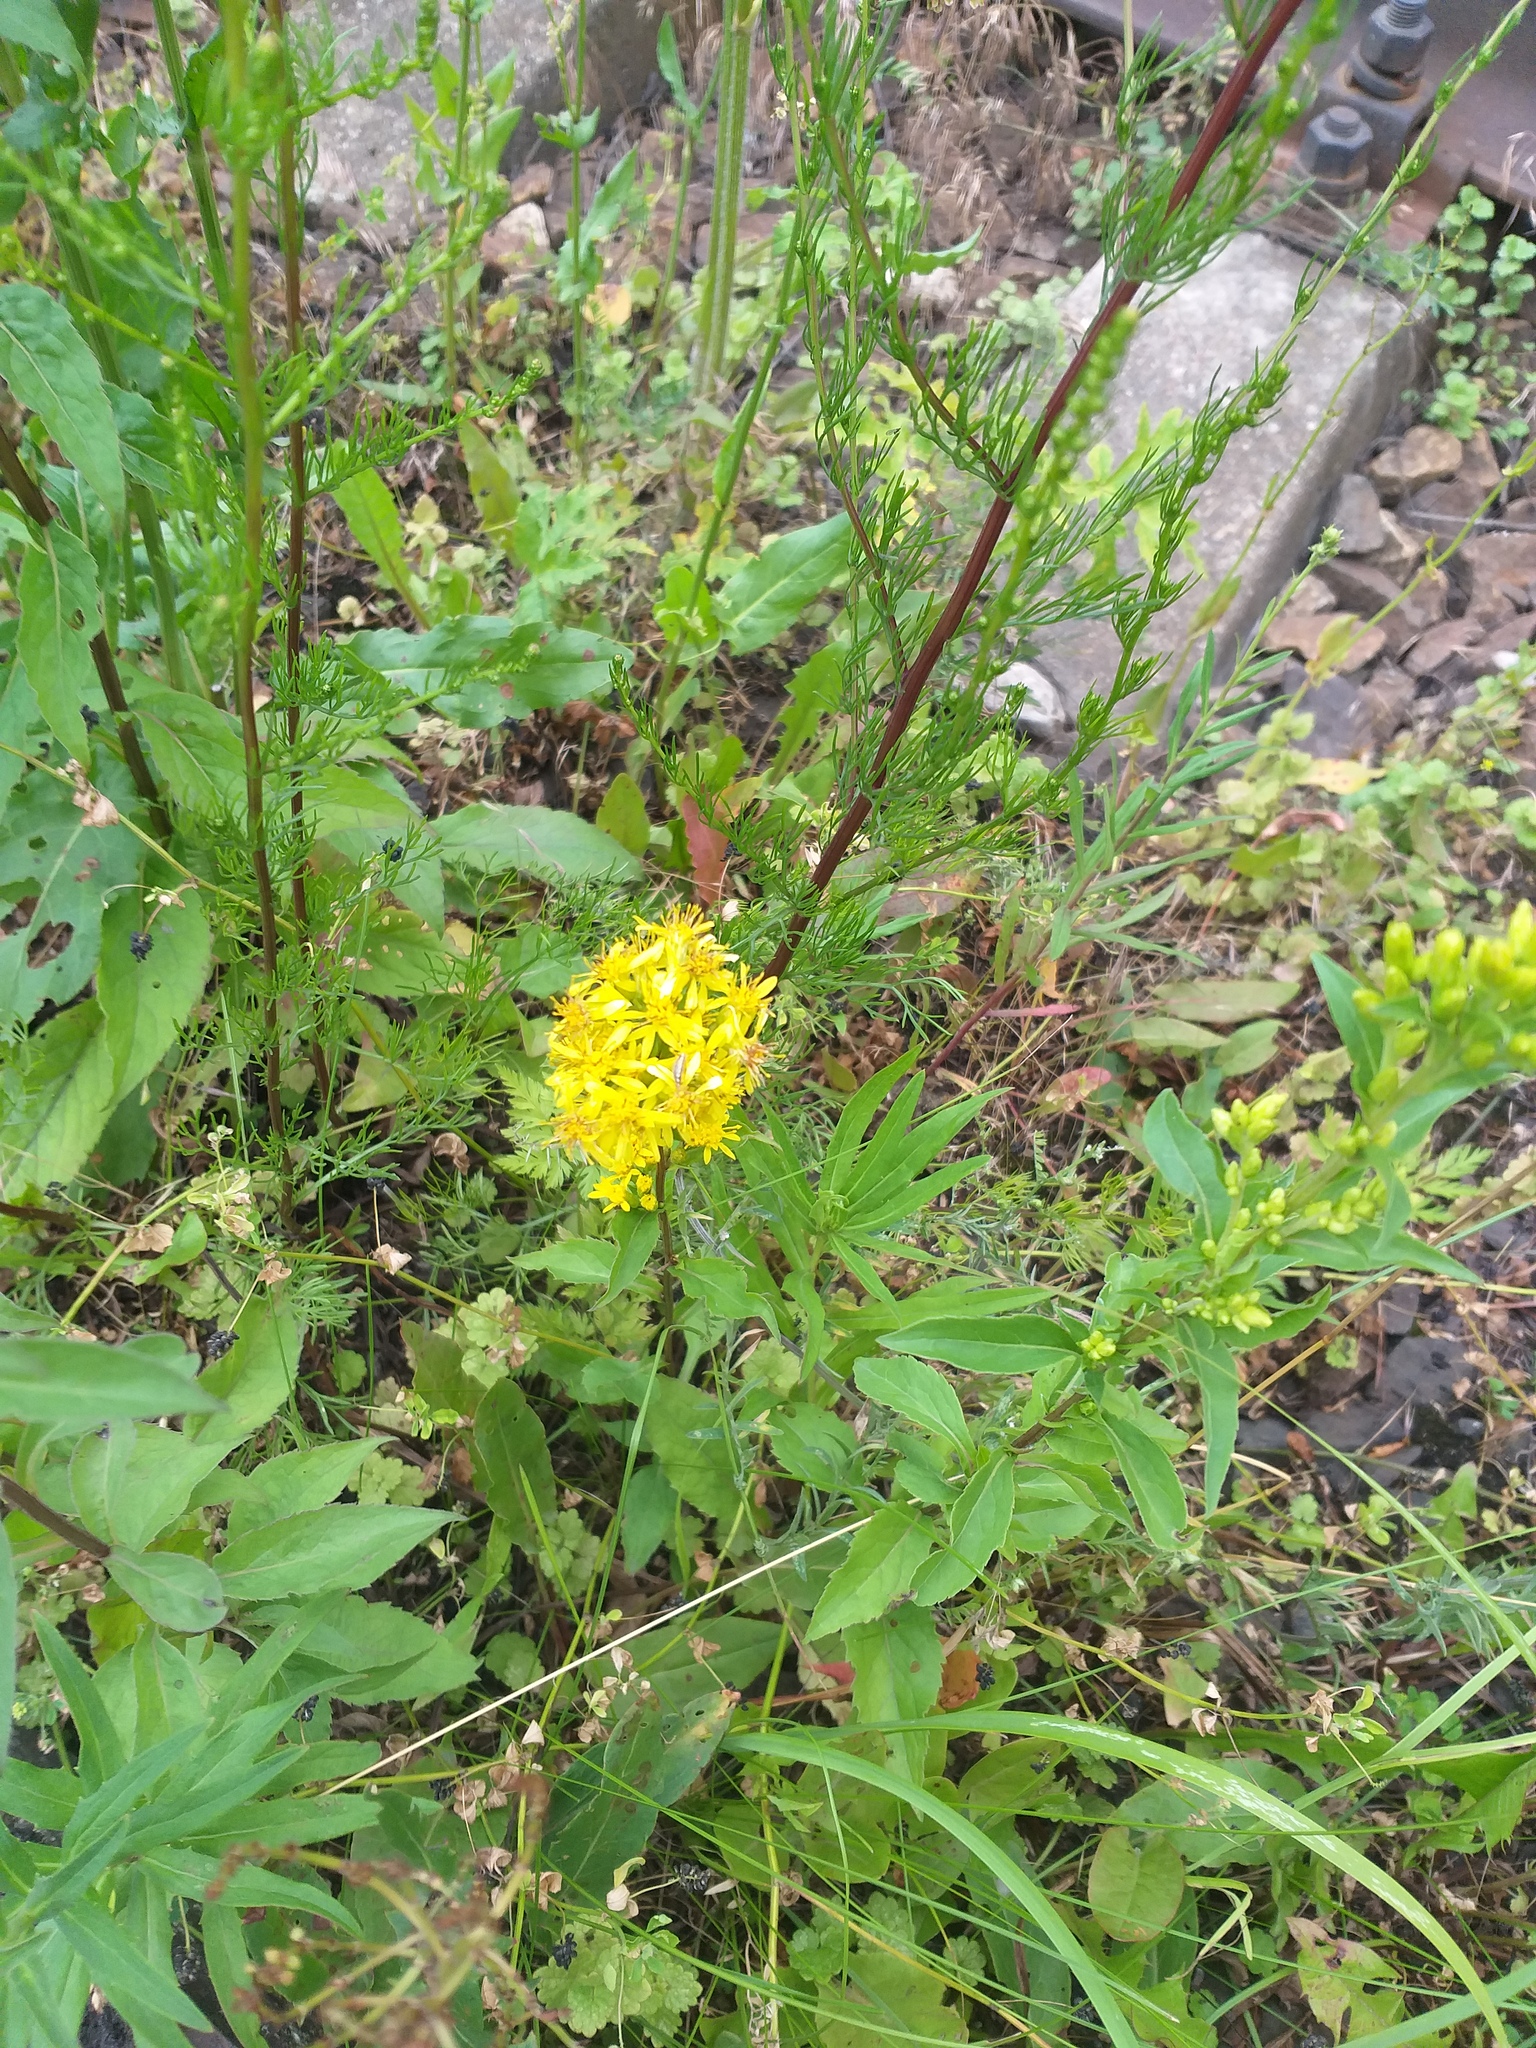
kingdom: Plantae
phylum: Tracheophyta
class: Magnoliopsida
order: Asterales
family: Asteraceae
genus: Solidago
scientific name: Solidago virgaurea
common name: Goldenrod
